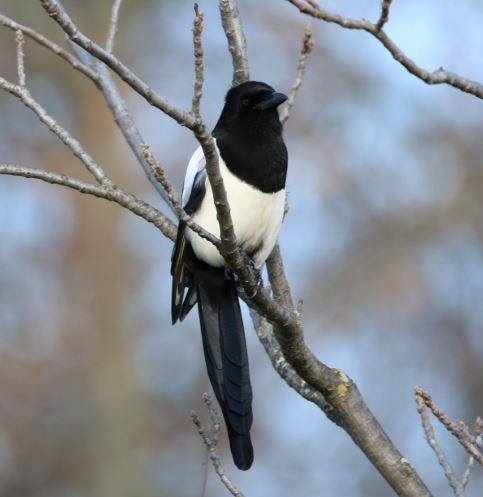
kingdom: Animalia
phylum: Chordata
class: Aves
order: Passeriformes
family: Corvidae
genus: Pica
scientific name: Pica pica
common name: Eurasian magpie
